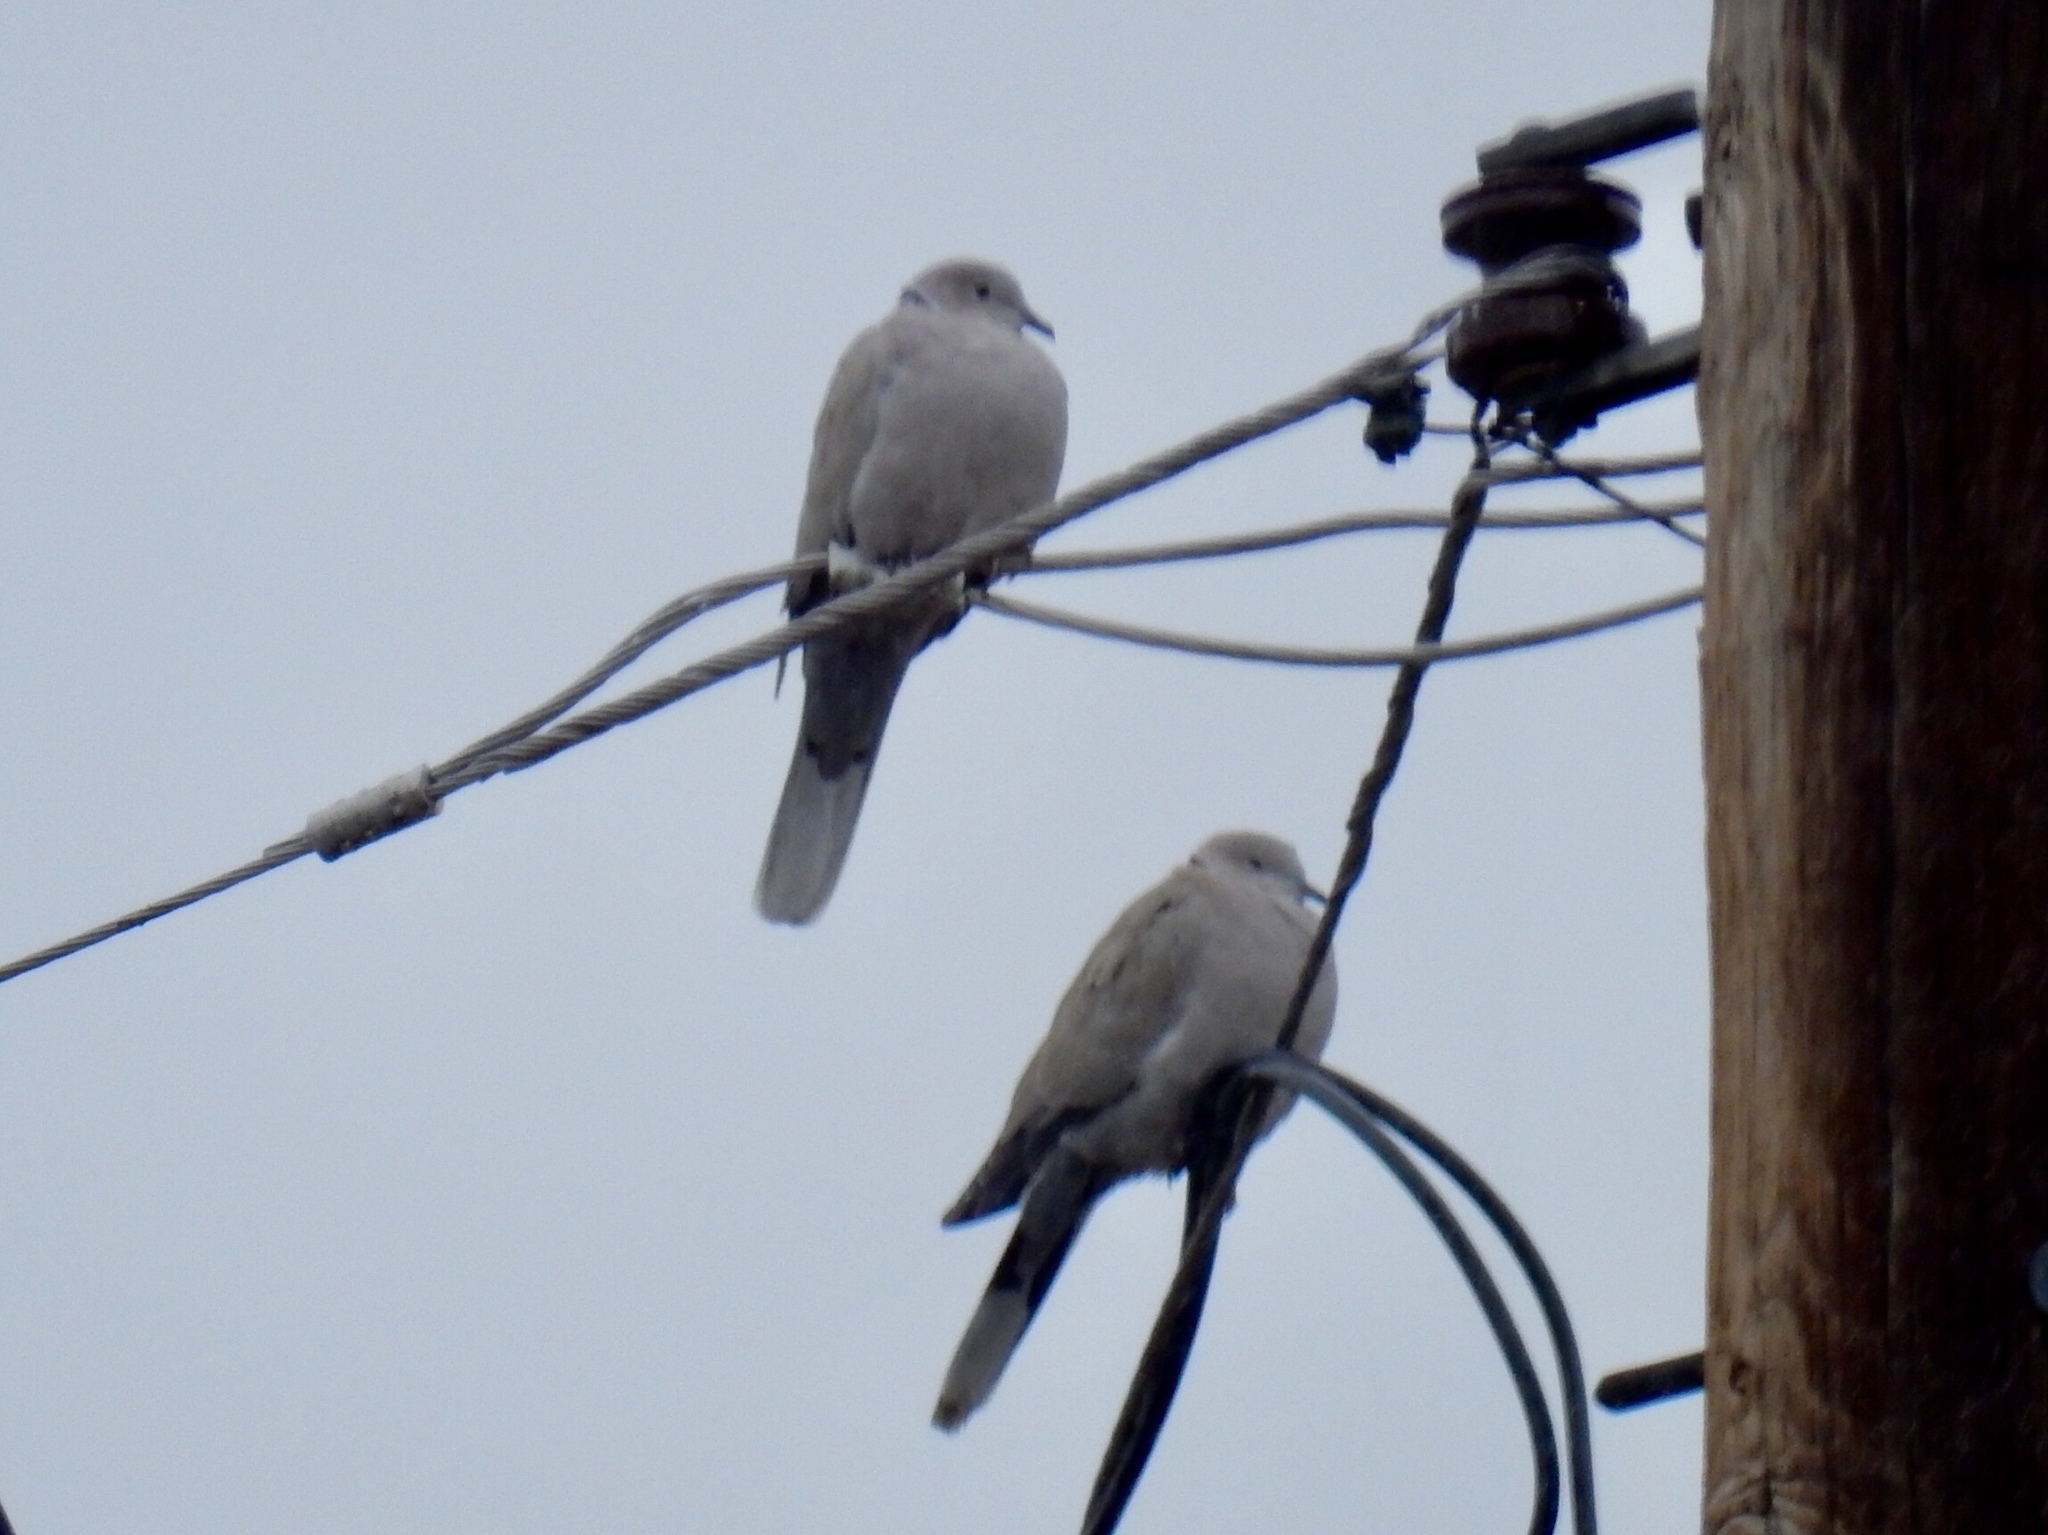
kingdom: Animalia
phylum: Chordata
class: Aves
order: Columbiformes
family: Columbidae
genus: Streptopelia
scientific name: Streptopelia decaocto
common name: Eurasian collared dove
